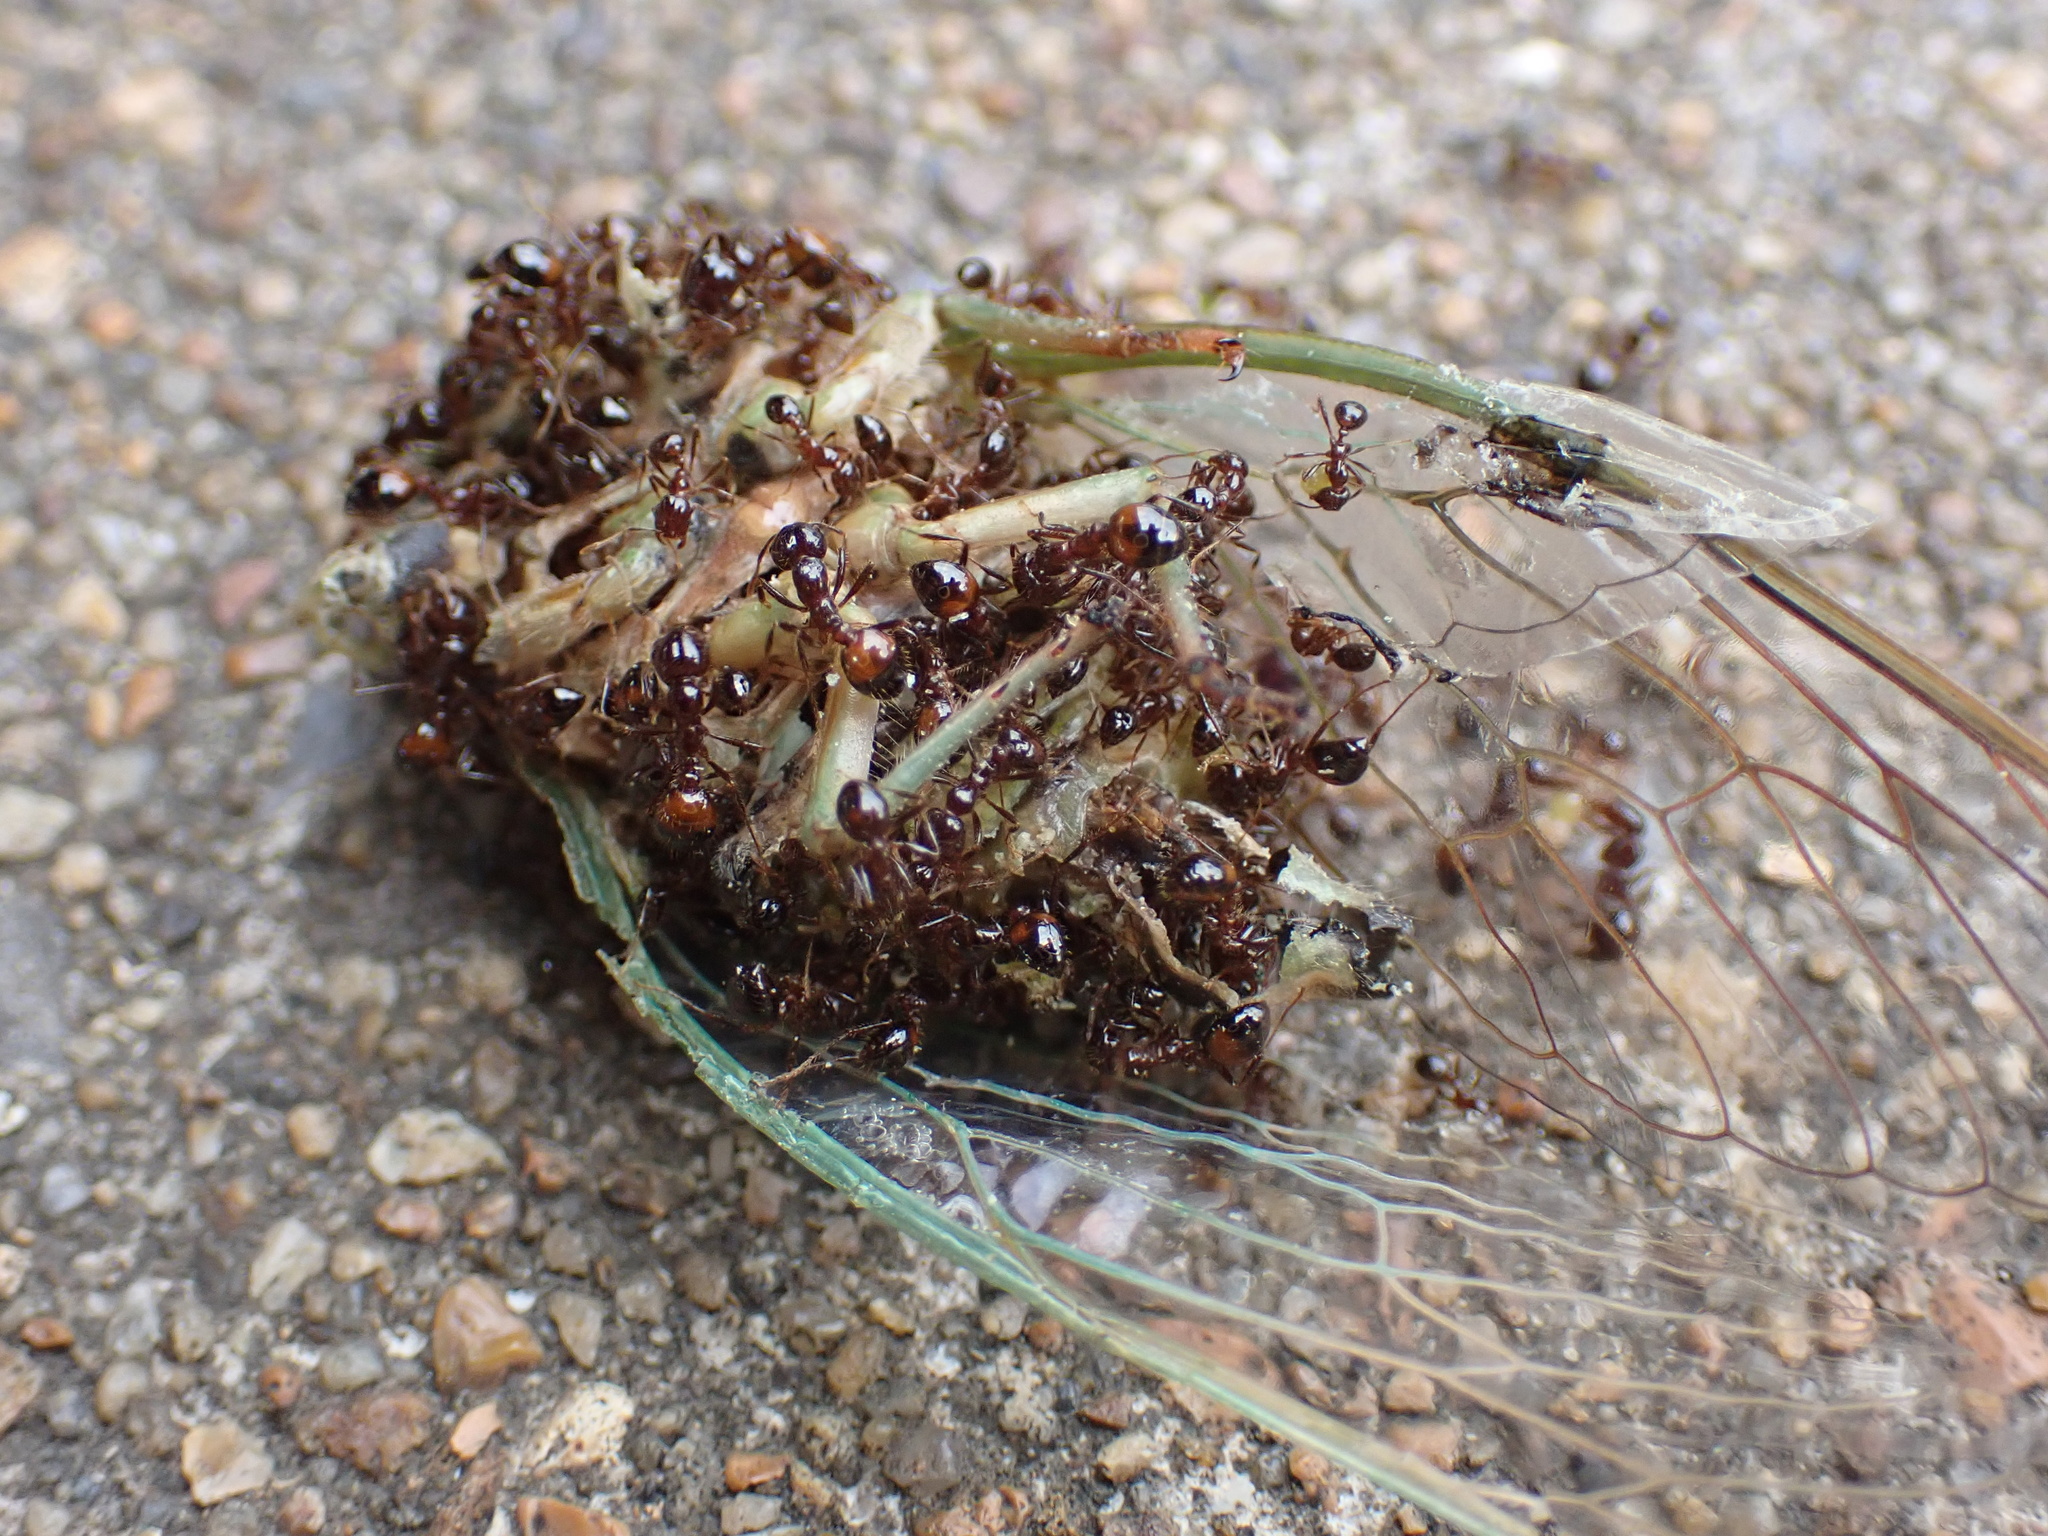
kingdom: Animalia
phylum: Arthropoda
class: Insecta
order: Hymenoptera
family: Formicidae
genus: Solenopsis
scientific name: Solenopsis
